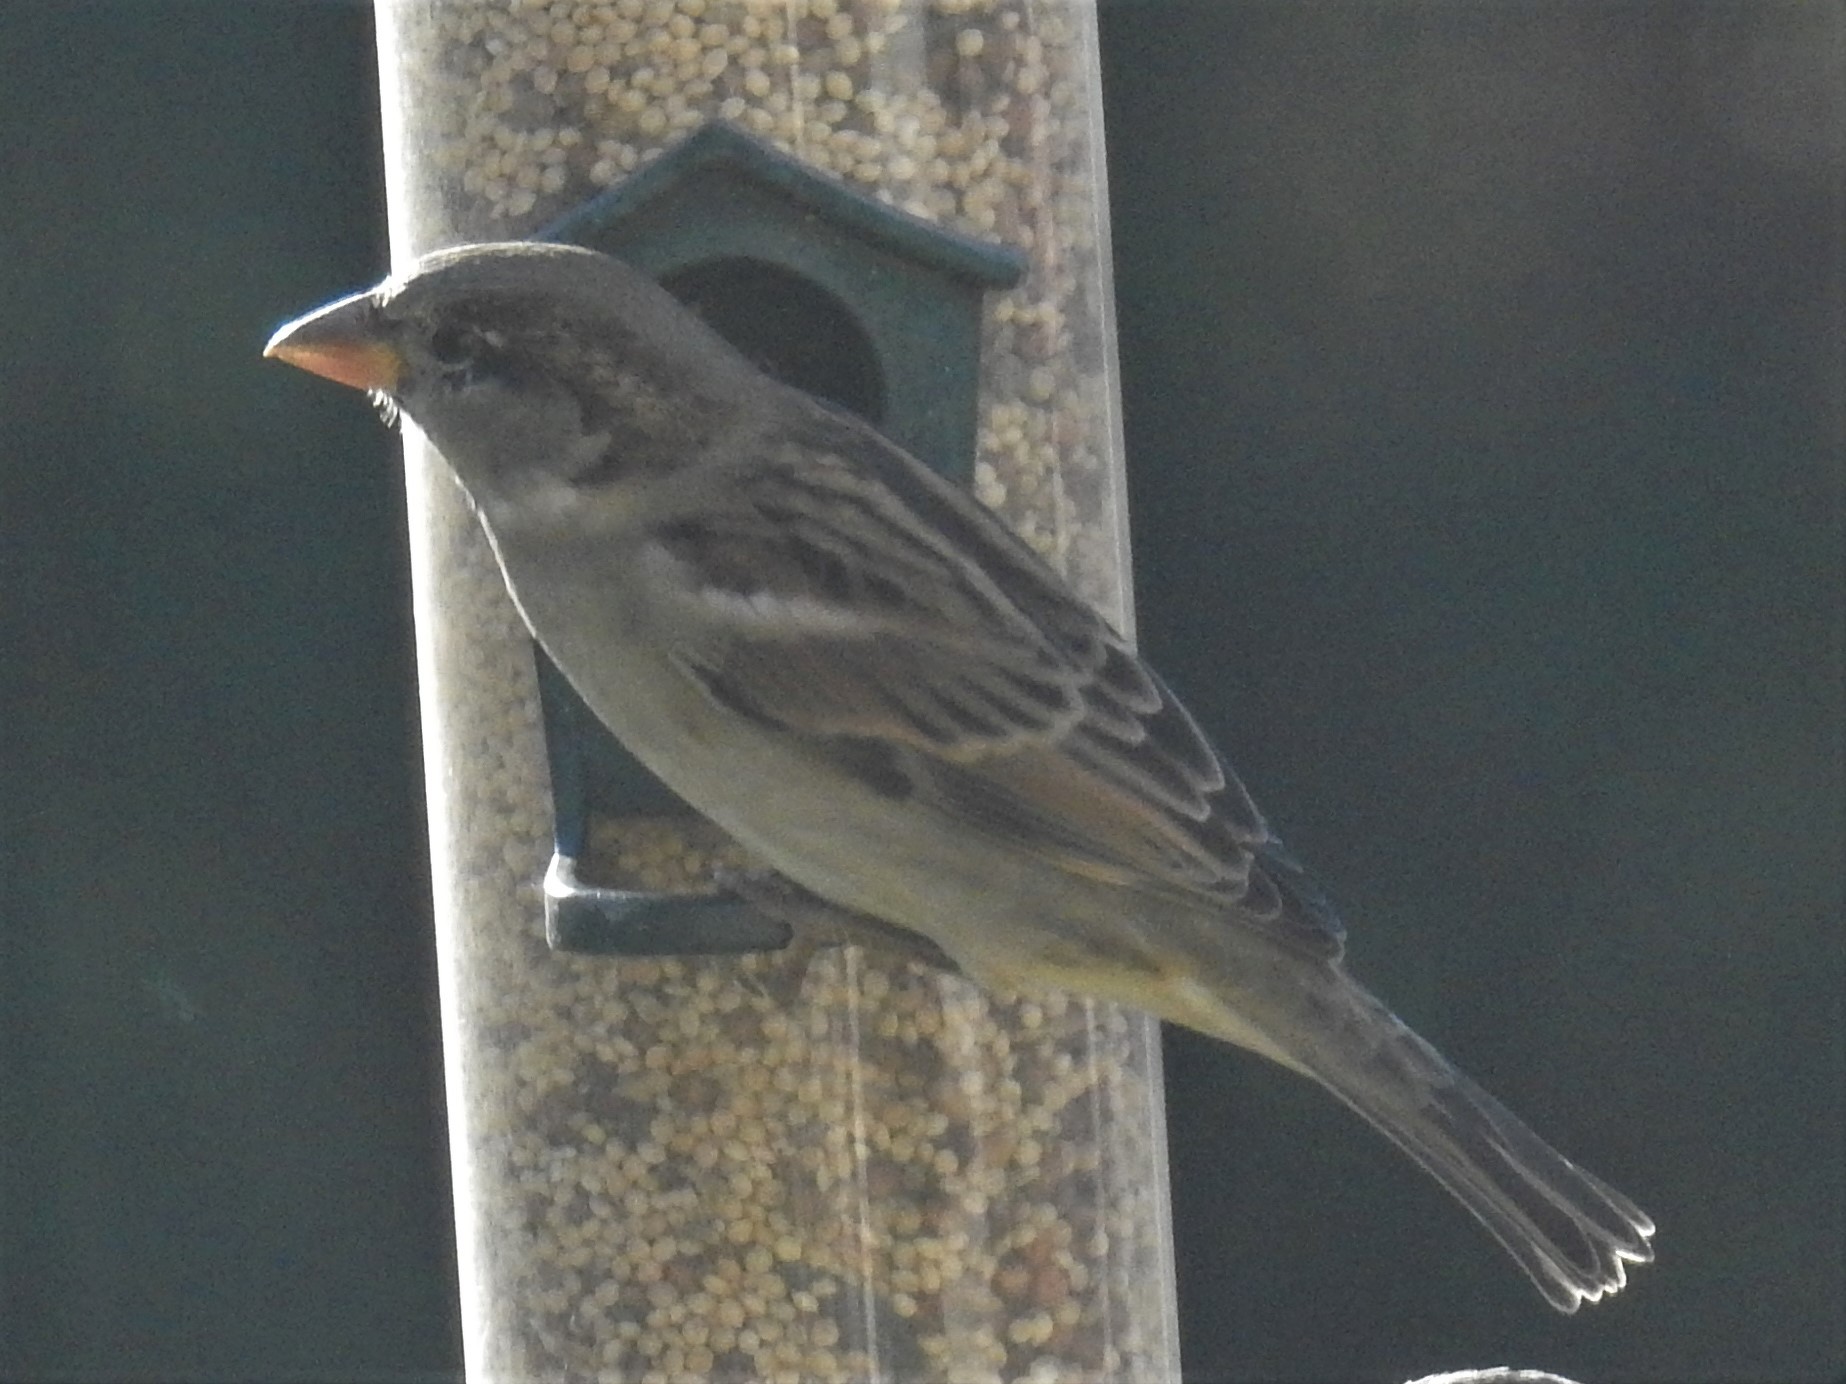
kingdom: Animalia
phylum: Chordata
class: Aves
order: Passeriformes
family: Passeridae
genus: Passer
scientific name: Passer domesticus
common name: House sparrow
